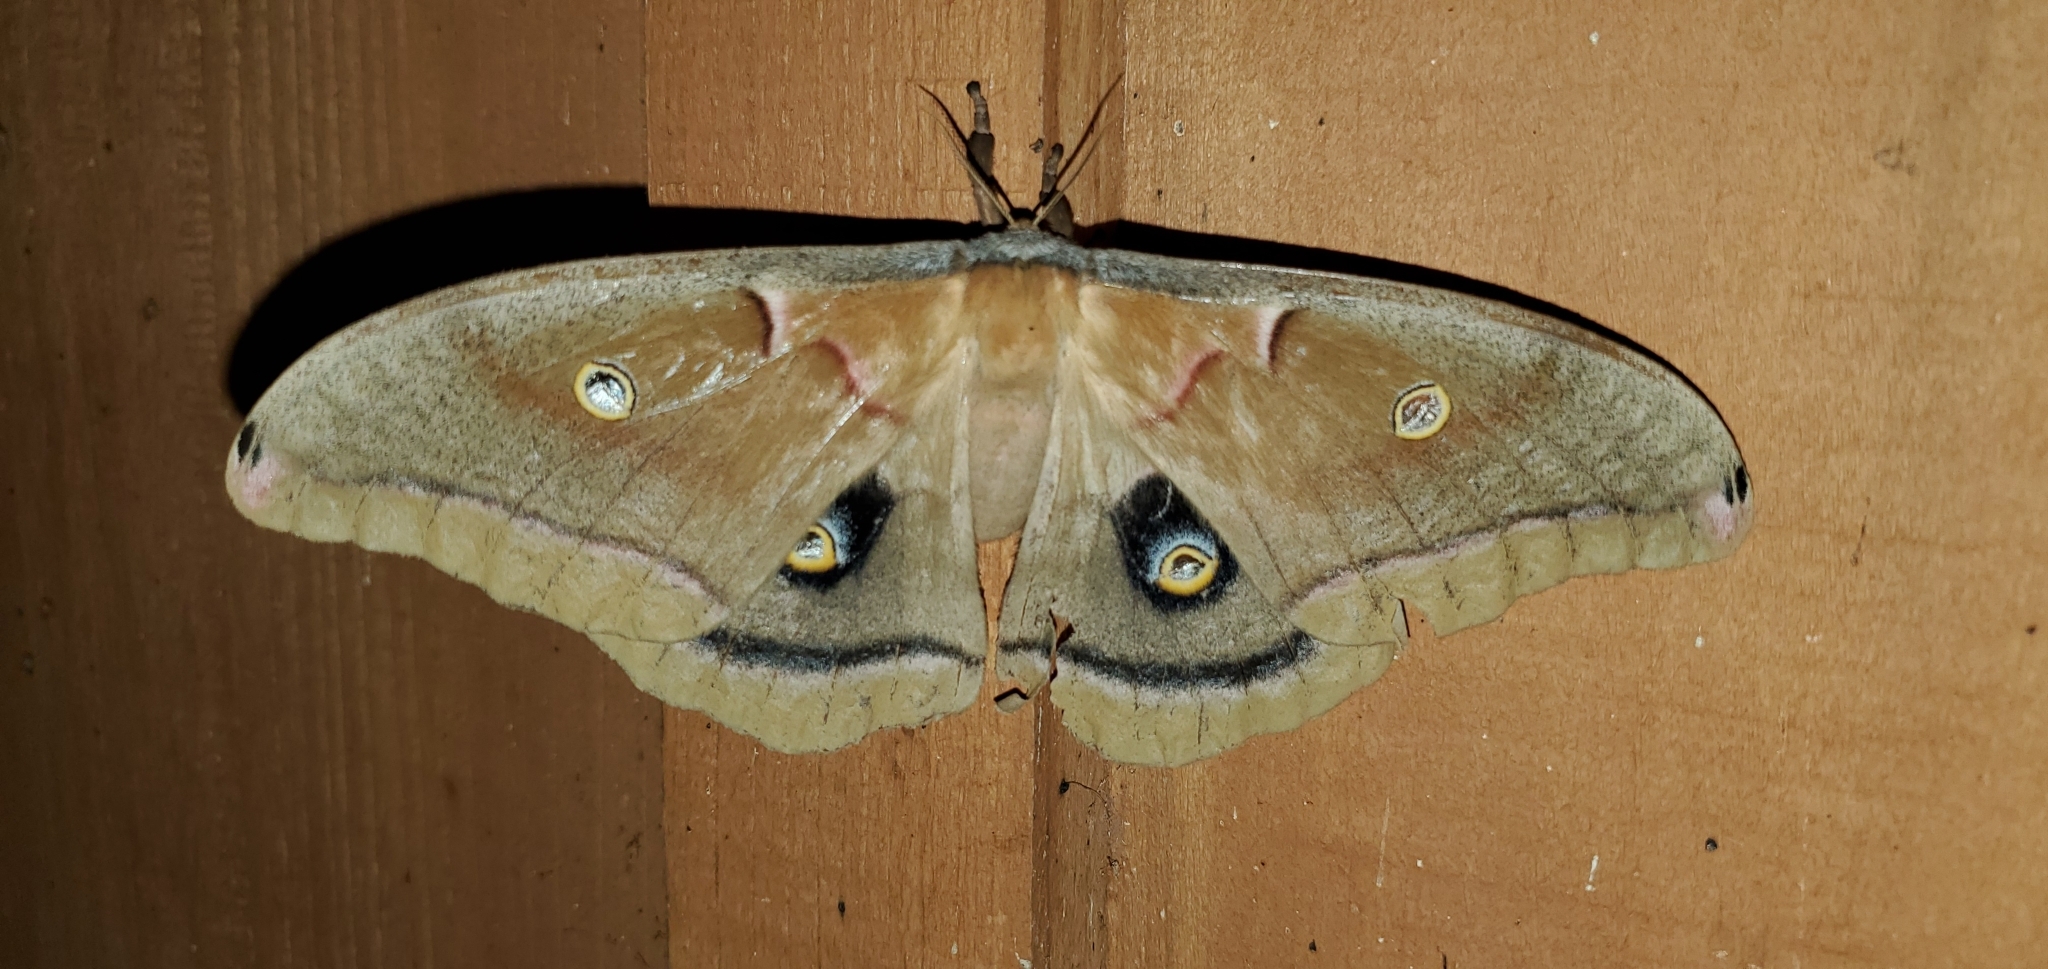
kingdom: Animalia
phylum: Arthropoda
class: Insecta
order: Lepidoptera
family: Saturniidae
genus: Antheraea
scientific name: Antheraea polyphemus
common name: Polyphemus moth
